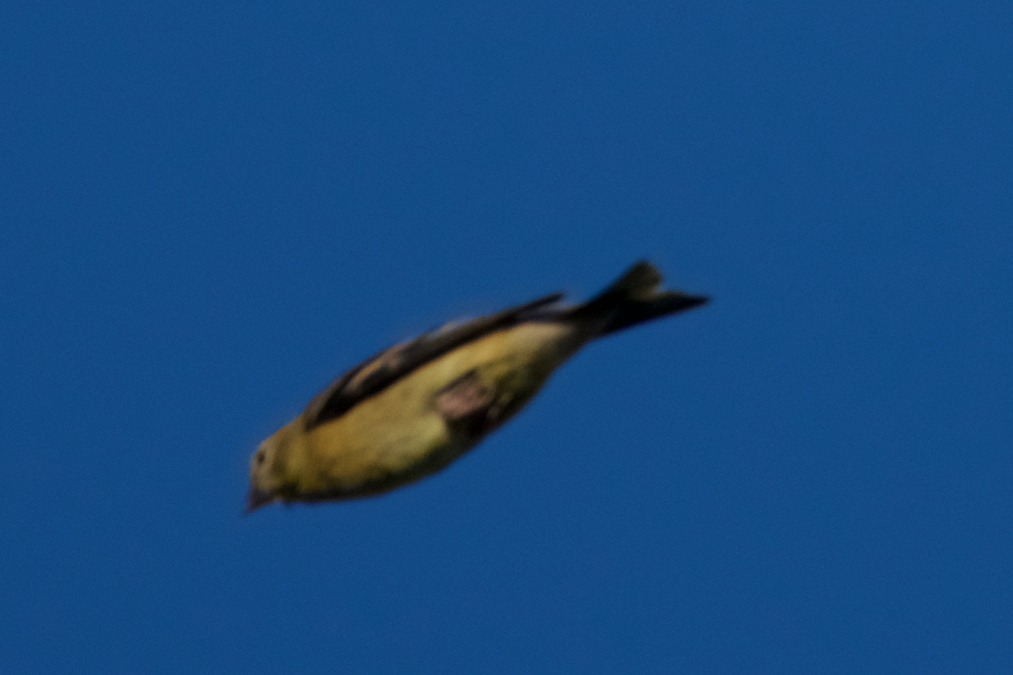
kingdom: Animalia
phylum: Chordata
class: Aves
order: Passeriformes
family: Fringillidae
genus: Spinus
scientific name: Spinus tristis
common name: American goldfinch
